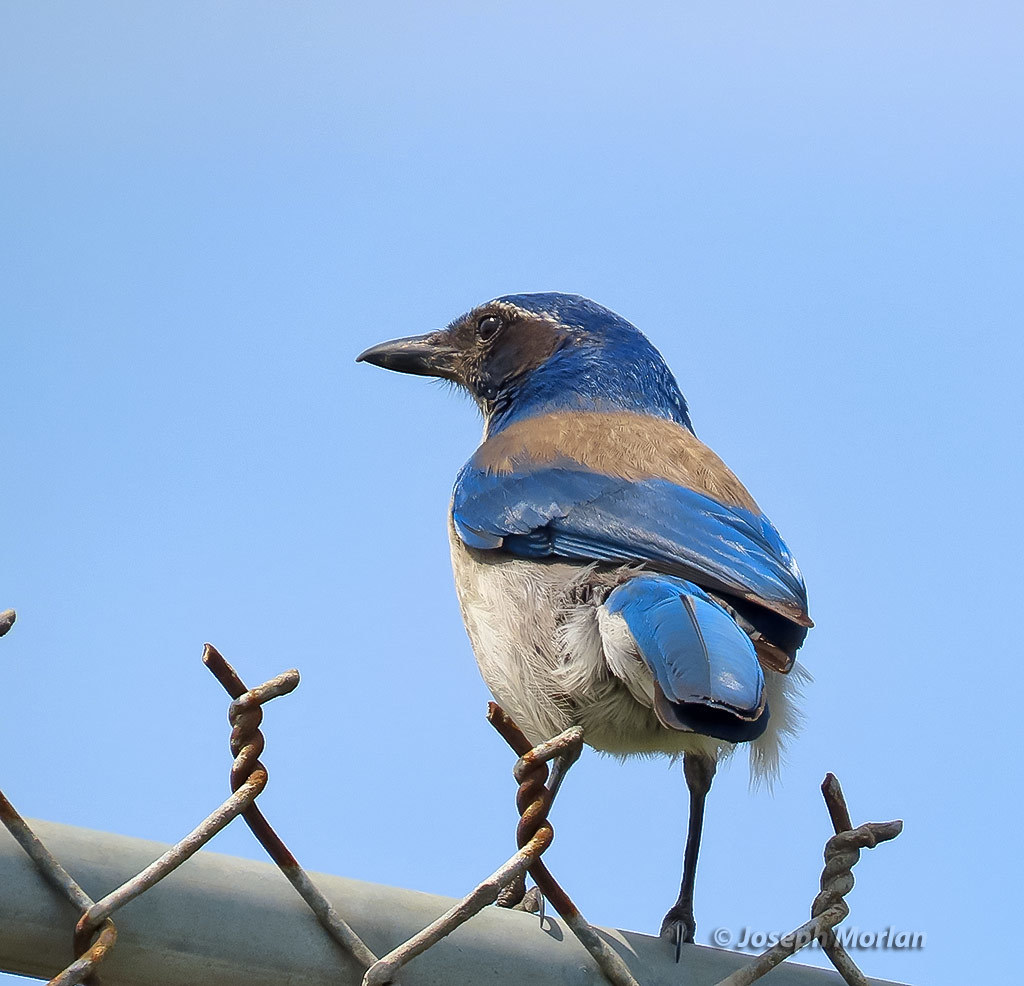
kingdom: Animalia
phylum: Chordata
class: Aves
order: Passeriformes
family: Corvidae
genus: Aphelocoma
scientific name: Aphelocoma californica
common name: California scrub-jay
